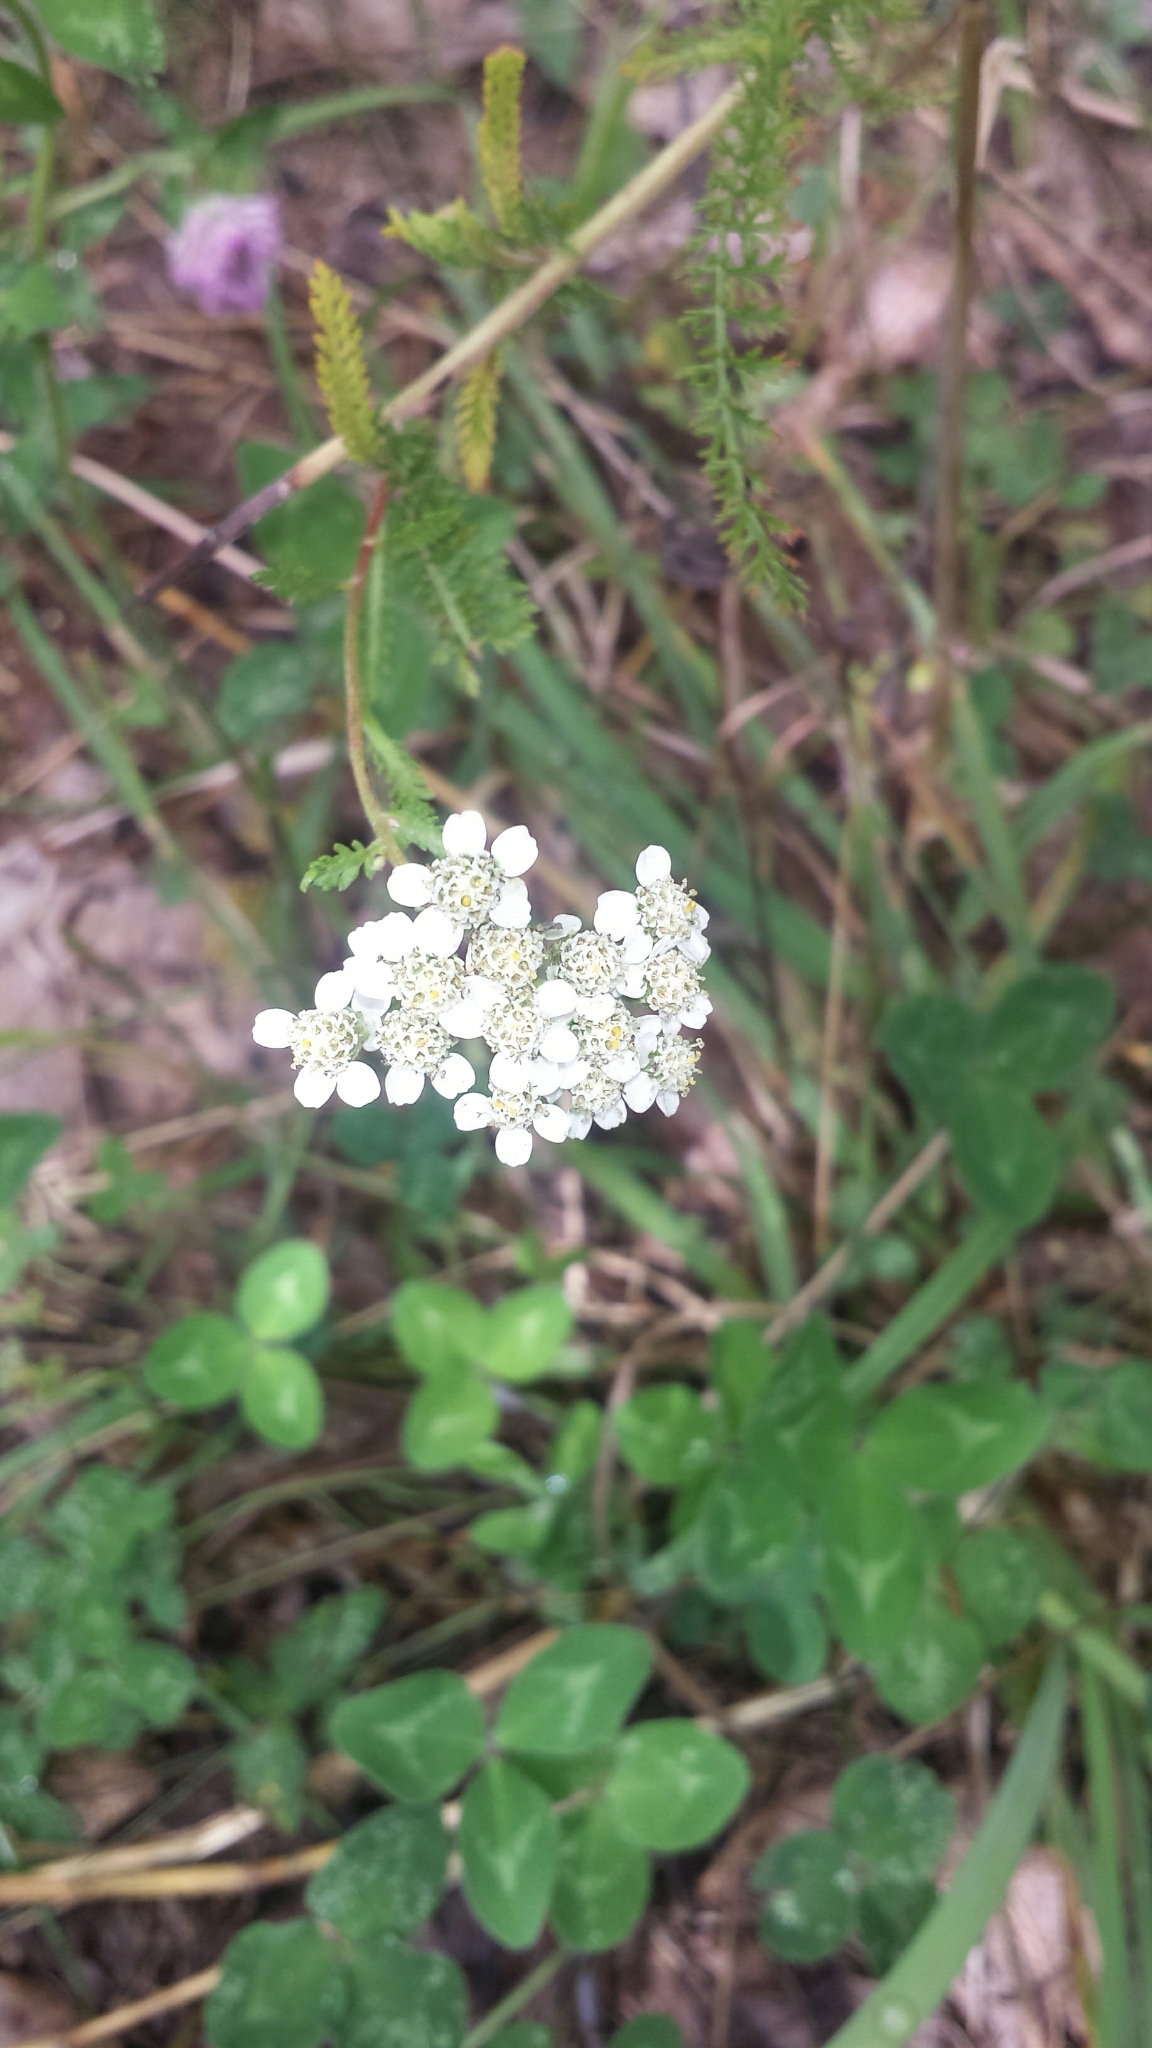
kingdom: Plantae
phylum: Tracheophyta
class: Magnoliopsida
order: Asterales
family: Asteraceae
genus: Achillea
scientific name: Achillea millefolium
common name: Yarrow
